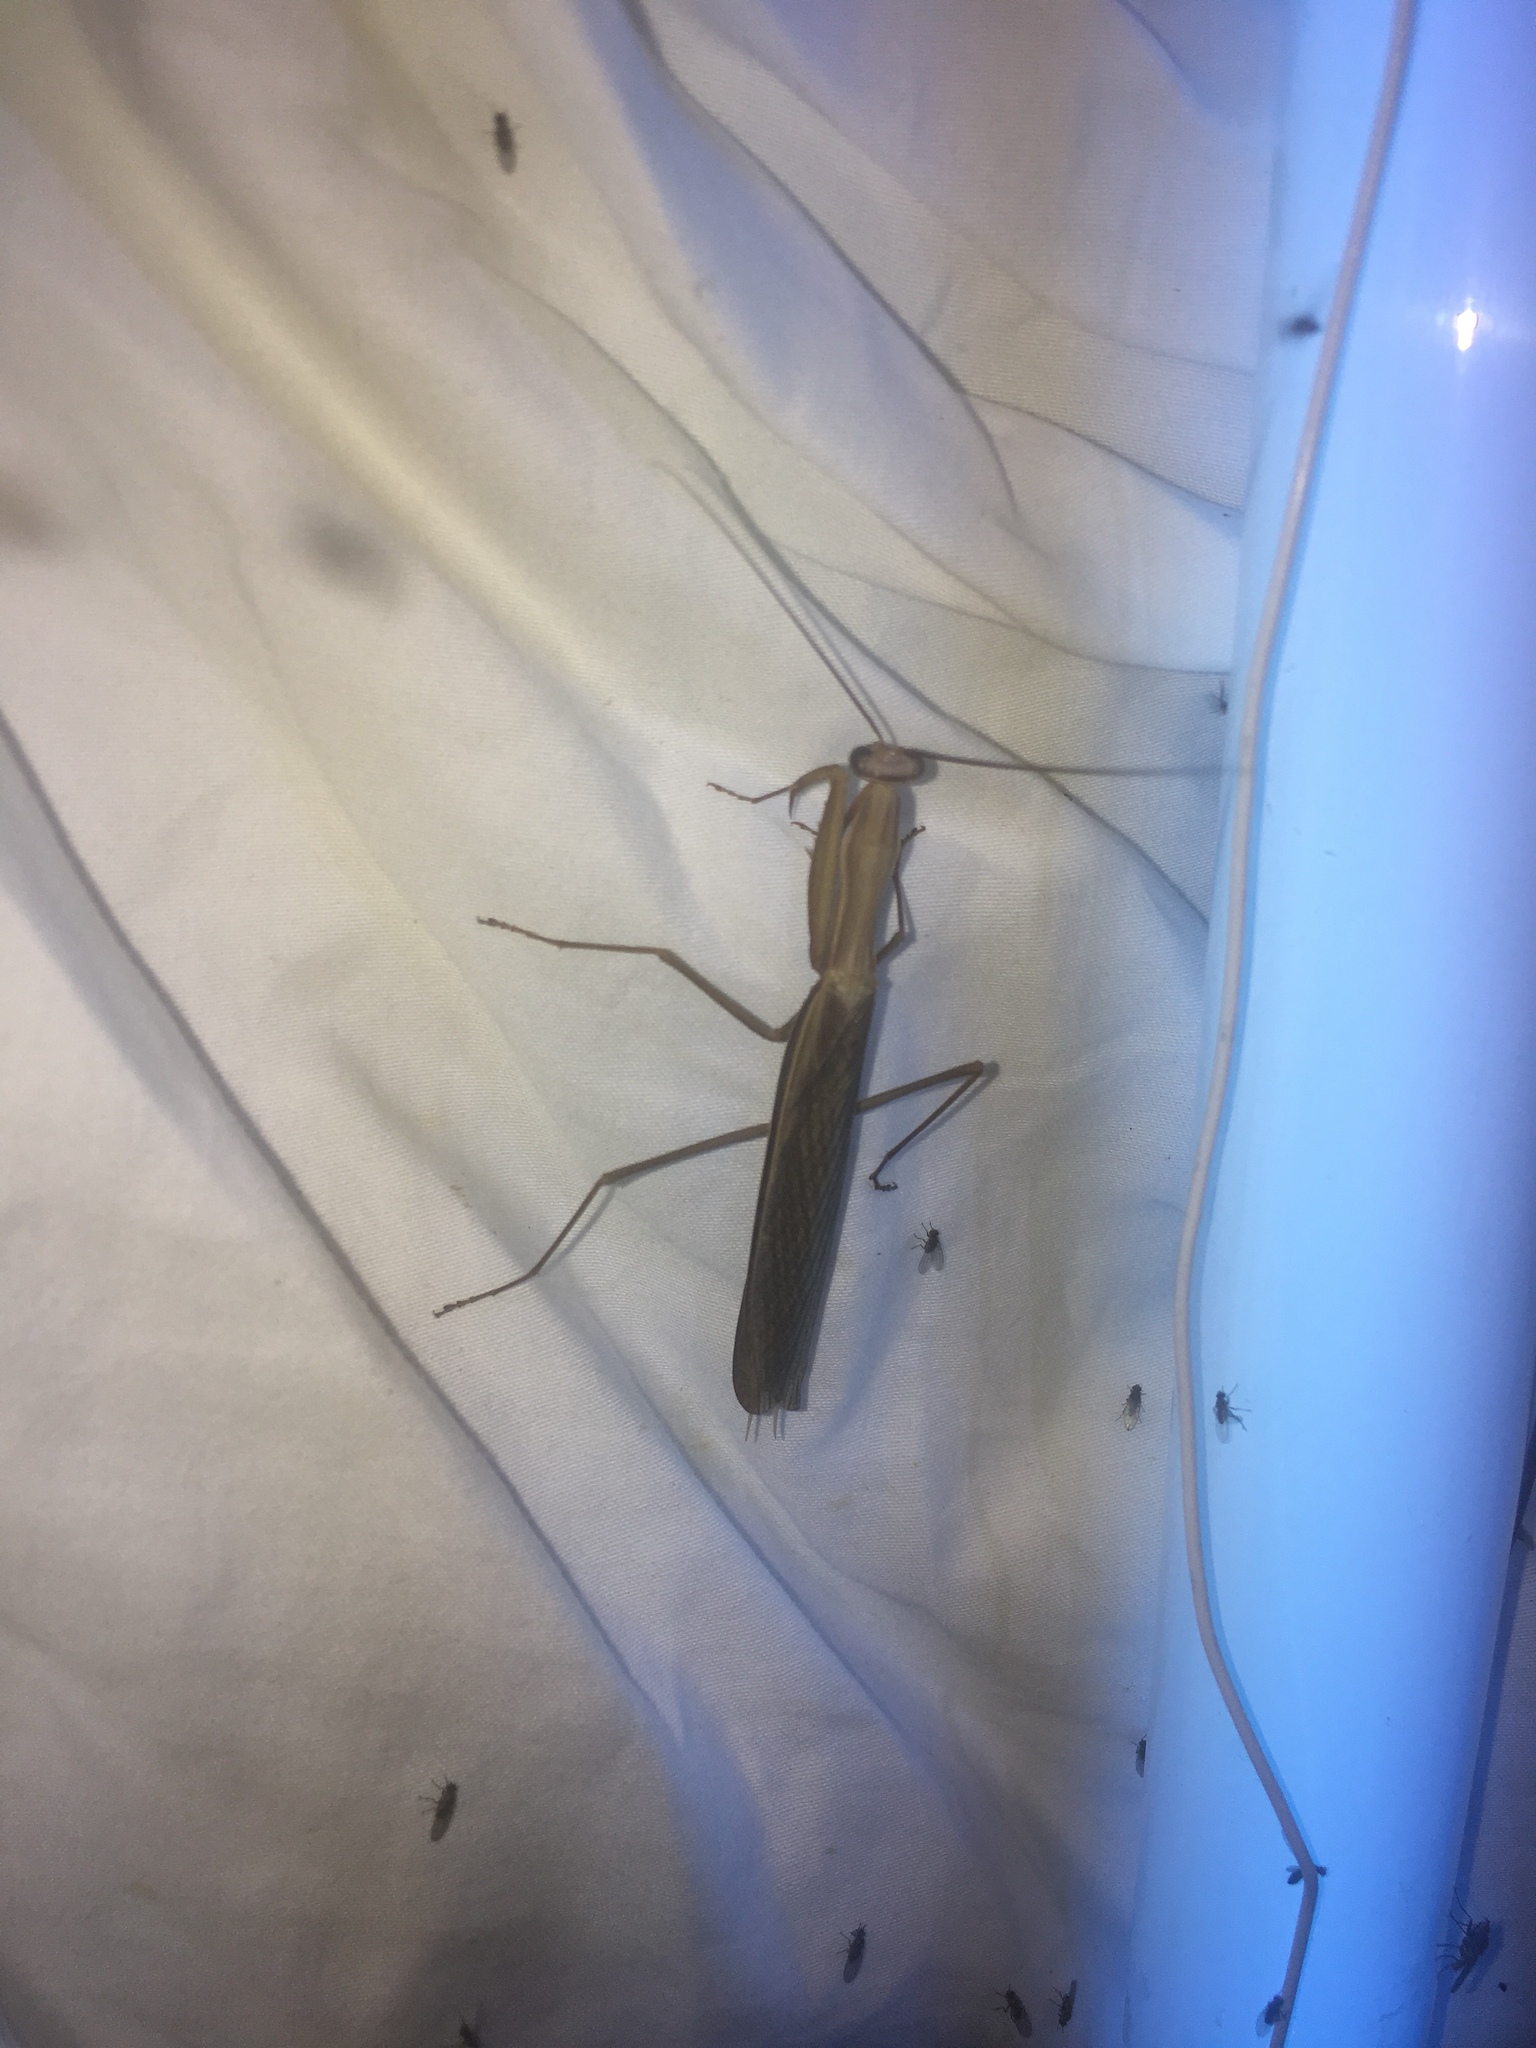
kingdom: Animalia
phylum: Arthropoda
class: Insecta
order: Mantodea
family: Mantidae
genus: Mantis
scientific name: Mantis religiosa
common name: Praying mantis
